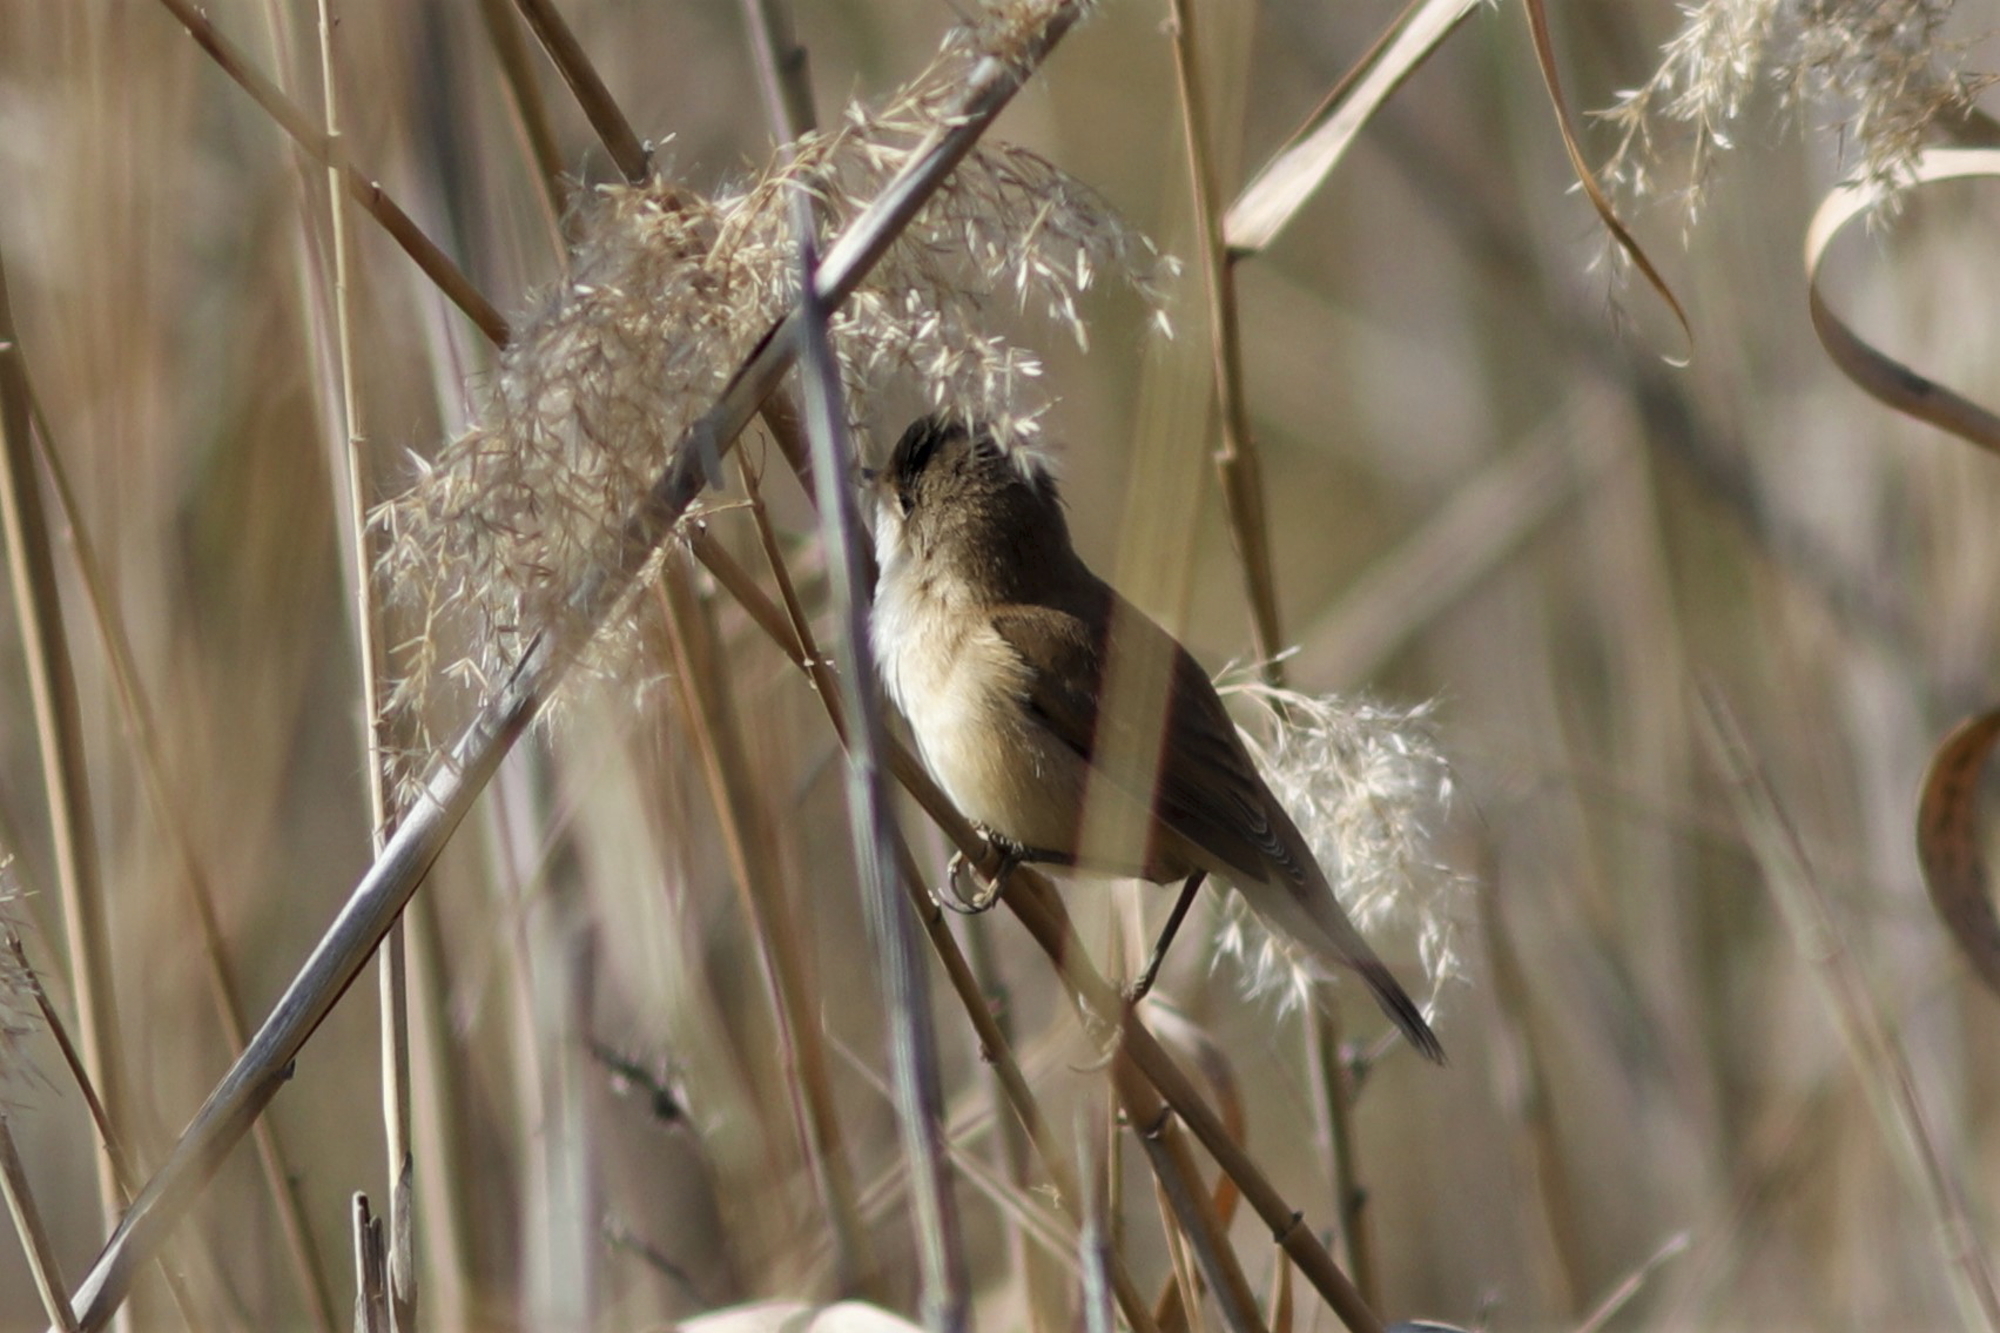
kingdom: Animalia
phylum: Chordata
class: Aves
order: Passeriformes
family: Acrocephalidae
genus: Acrocephalus
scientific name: Acrocephalus scirpaceus
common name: Eurasian reed warbler
